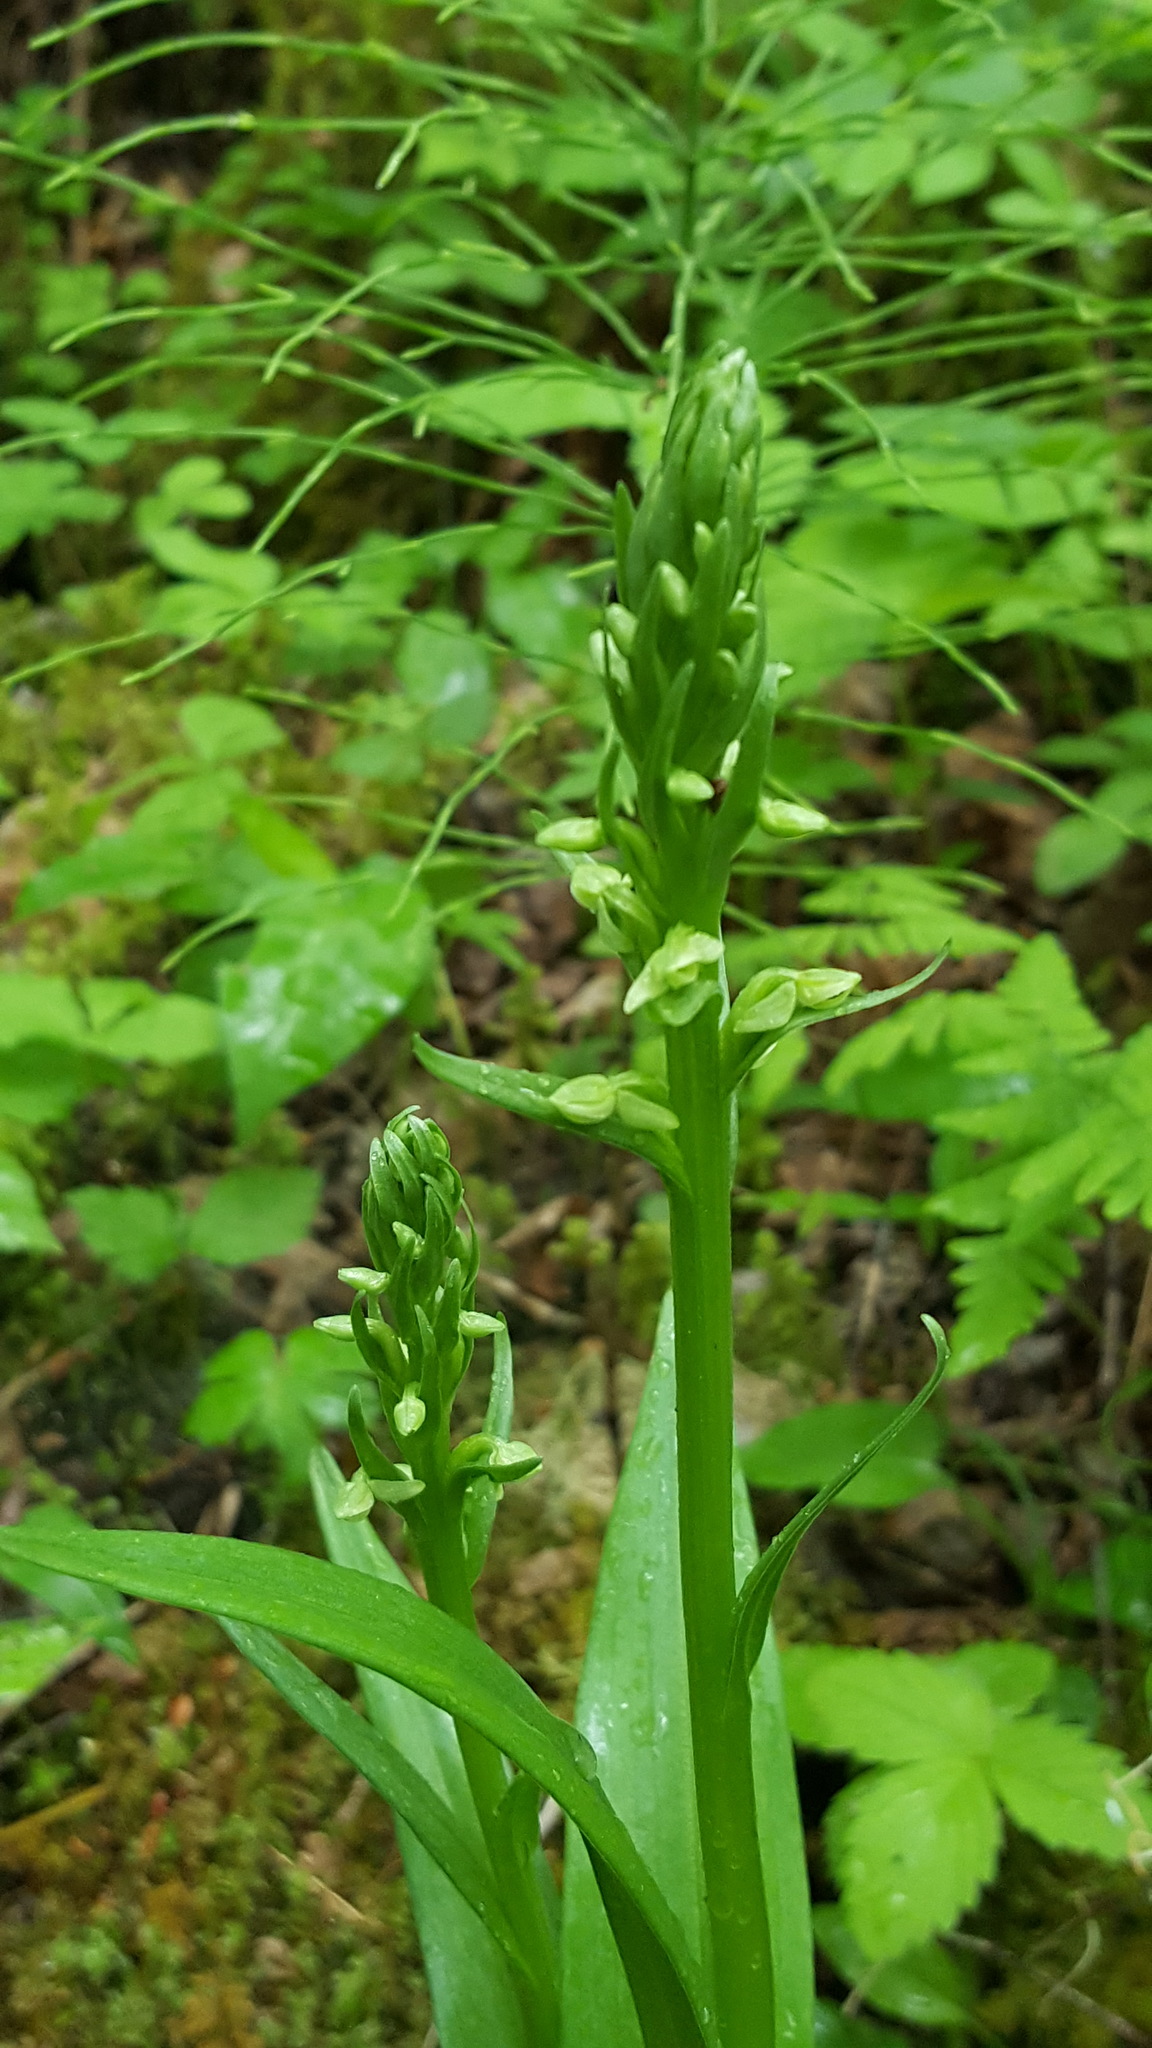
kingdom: Plantae
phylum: Tracheophyta
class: Liliopsida
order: Asparagales
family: Orchidaceae
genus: Platanthera
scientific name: Platanthera huronensis
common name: Fragrant green orchid
